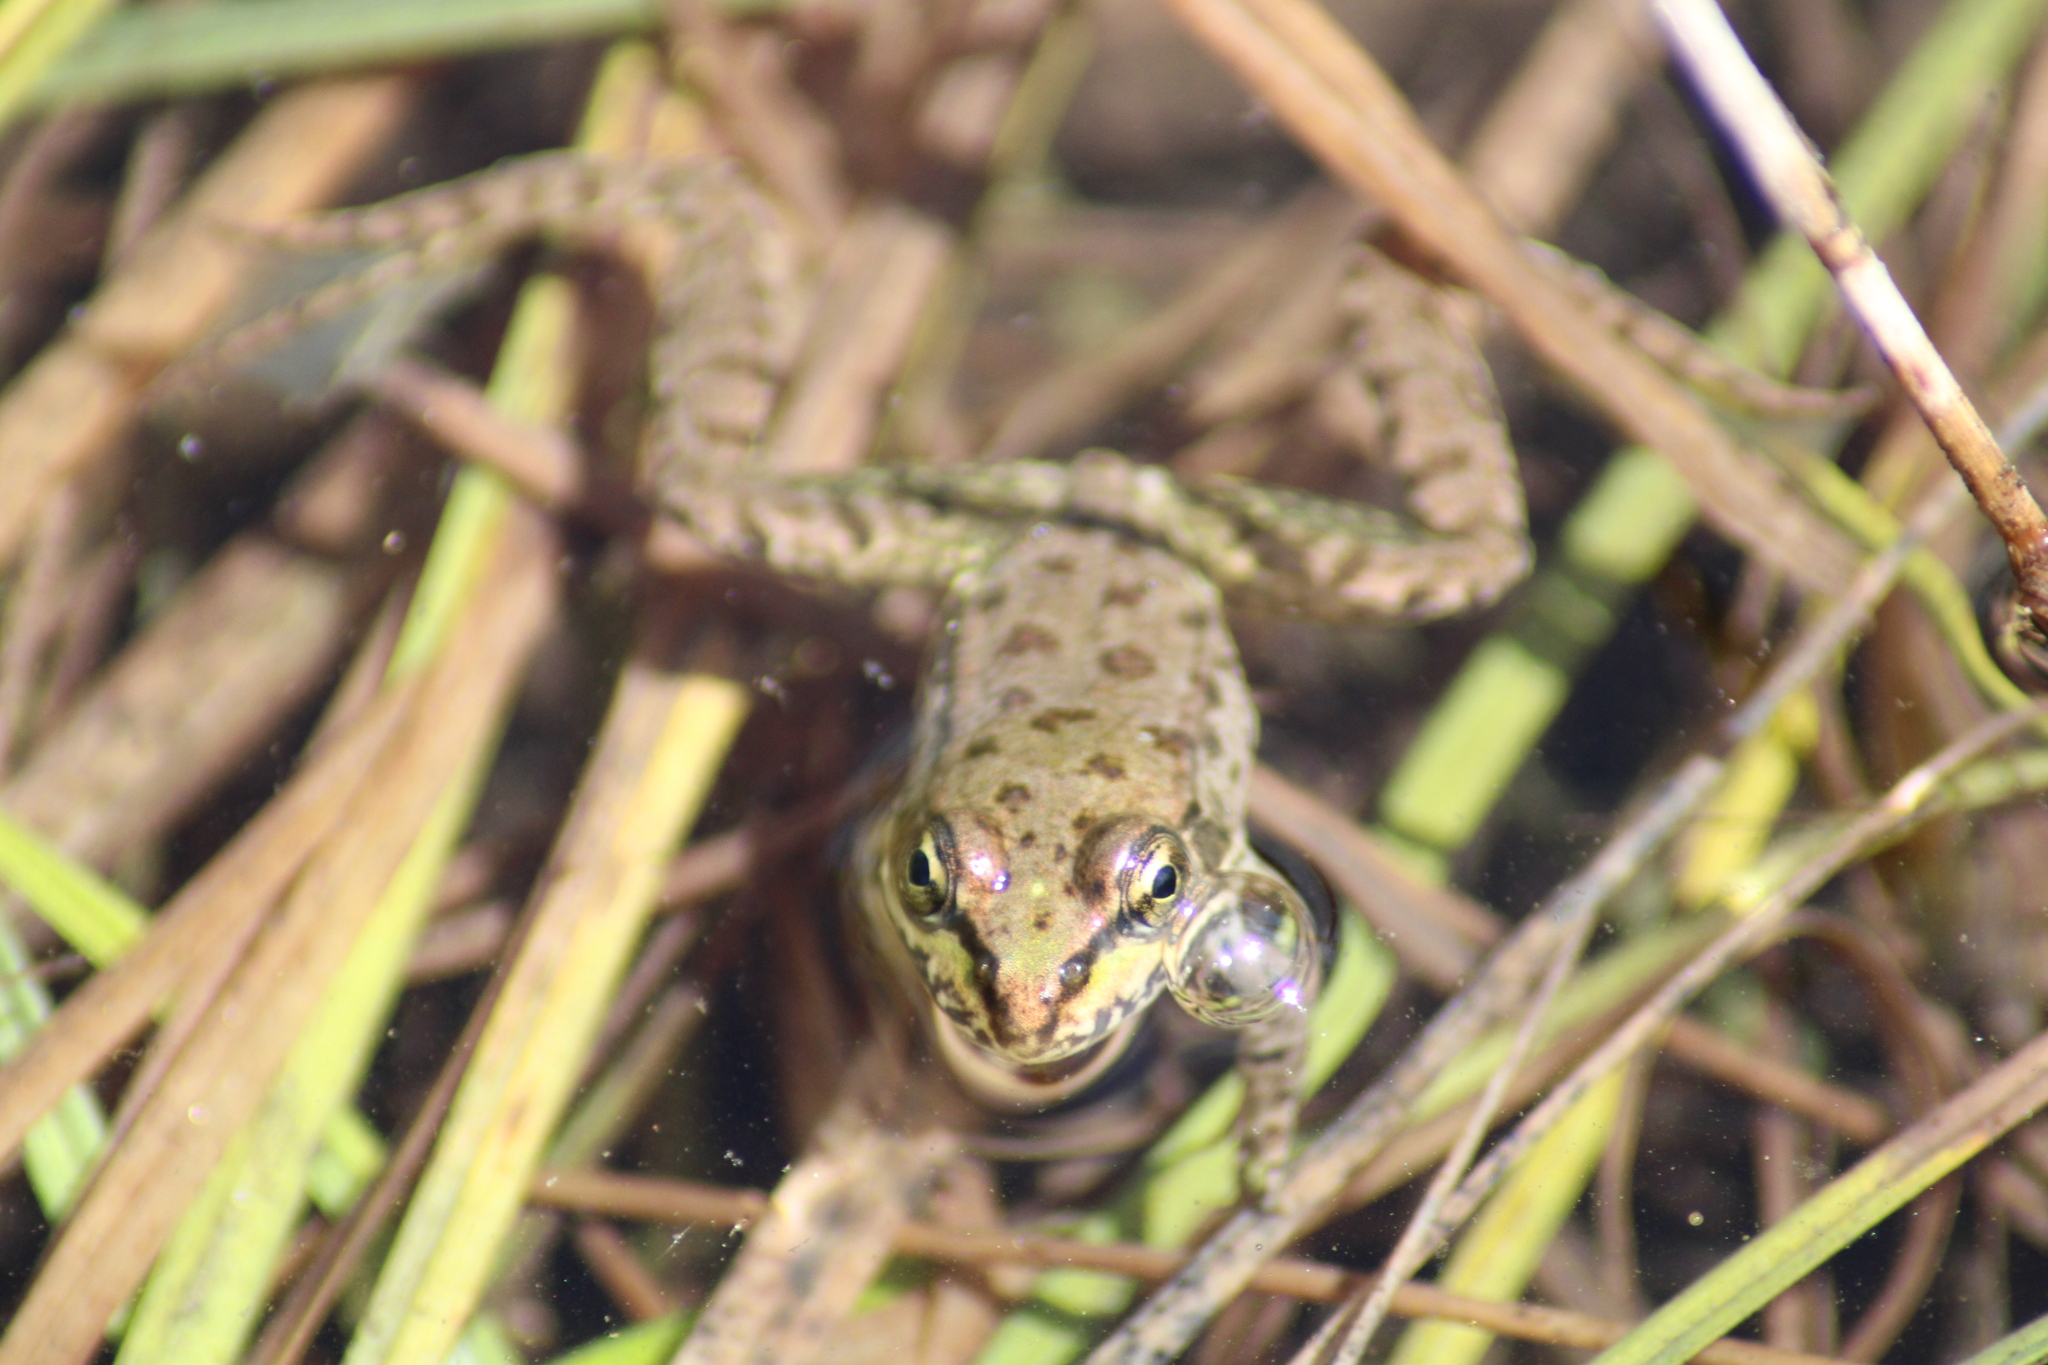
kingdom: Animalia
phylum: Chordata
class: Amphibia
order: Anura
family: Ranidae
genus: Pelophylax
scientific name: Pelophylax
